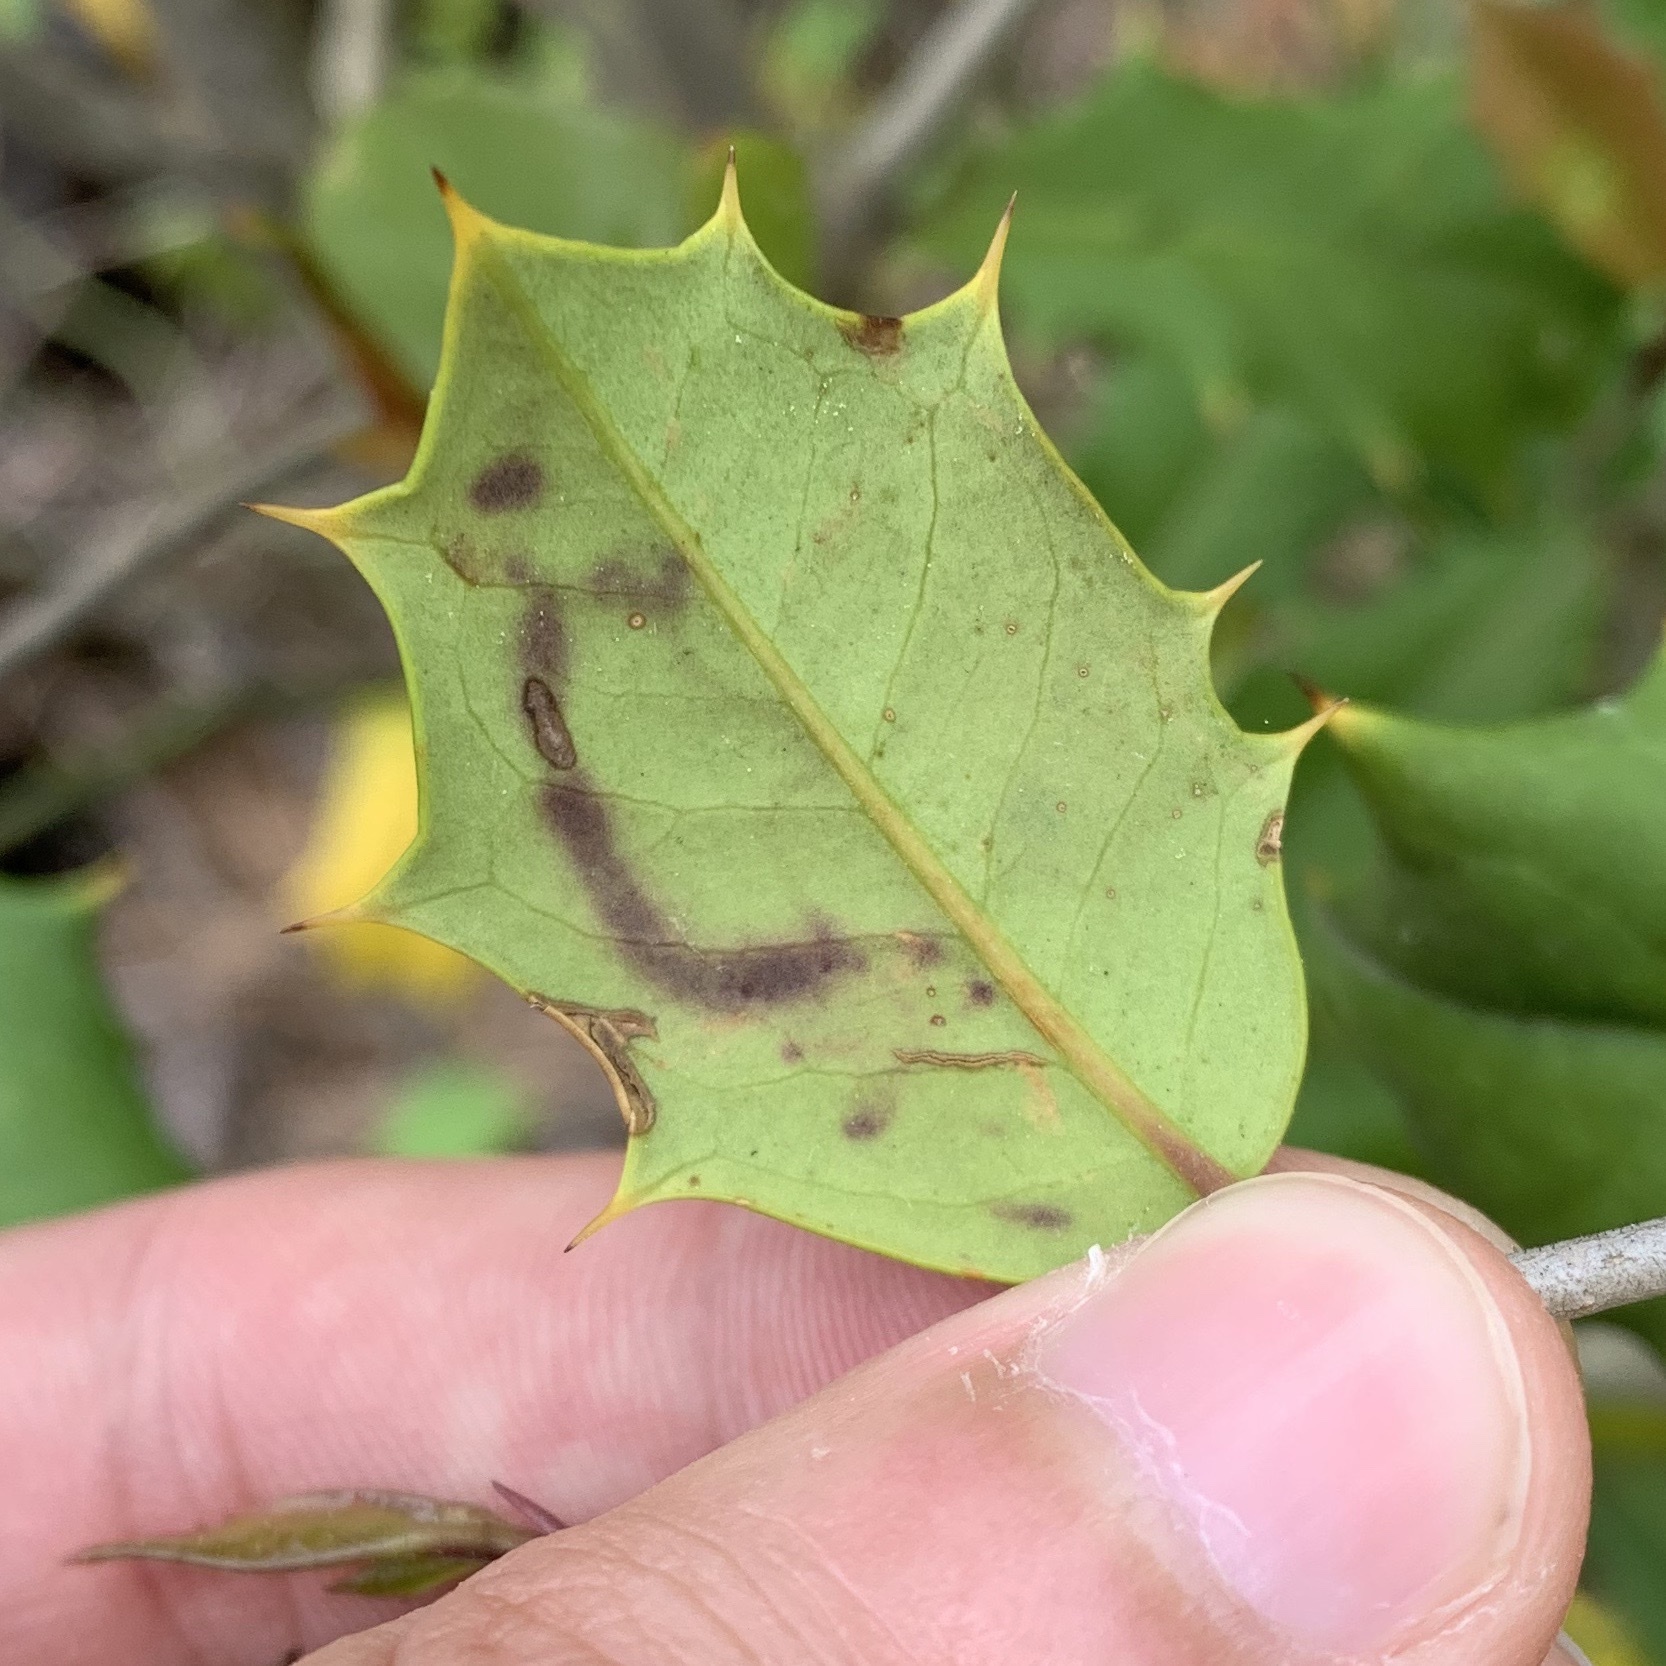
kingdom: Animalia
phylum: Arthropoda
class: Insecta
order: Diptera
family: Agromyzidae
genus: Phytomyza
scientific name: Phytomyza opacae
